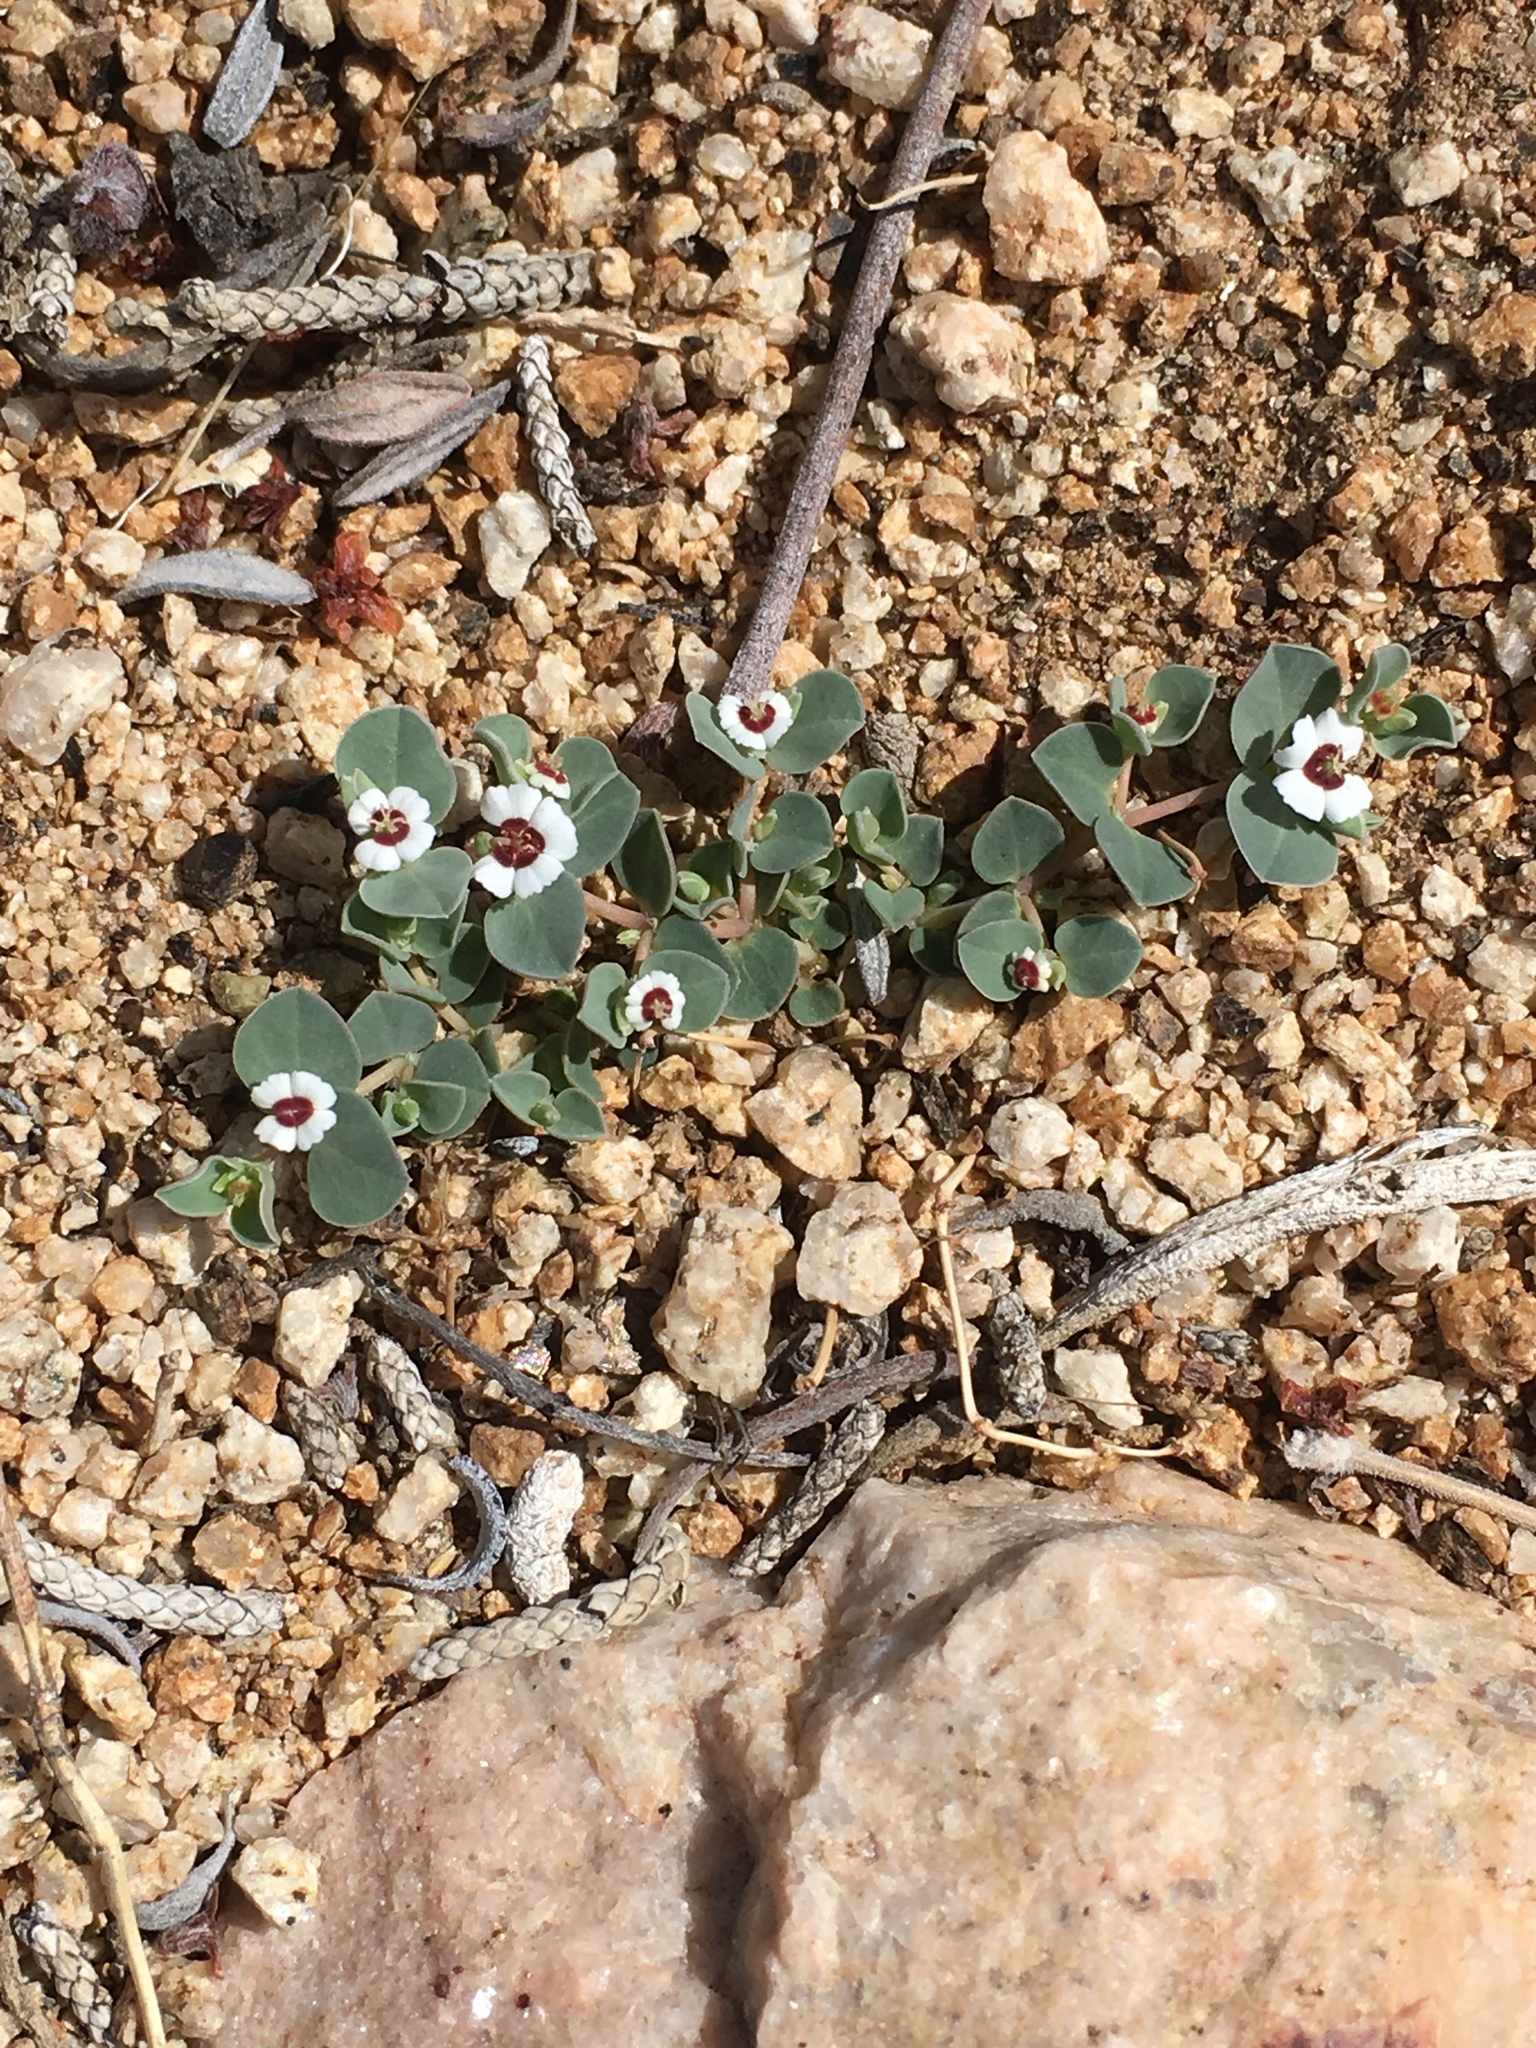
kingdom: Plantae
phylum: Tracheophyta
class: Magnoliopsida
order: Malpighiales
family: Euphorbiaceae
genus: Euphorbia
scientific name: Euphorbia albomarginata
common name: Whitemargin sandmat
